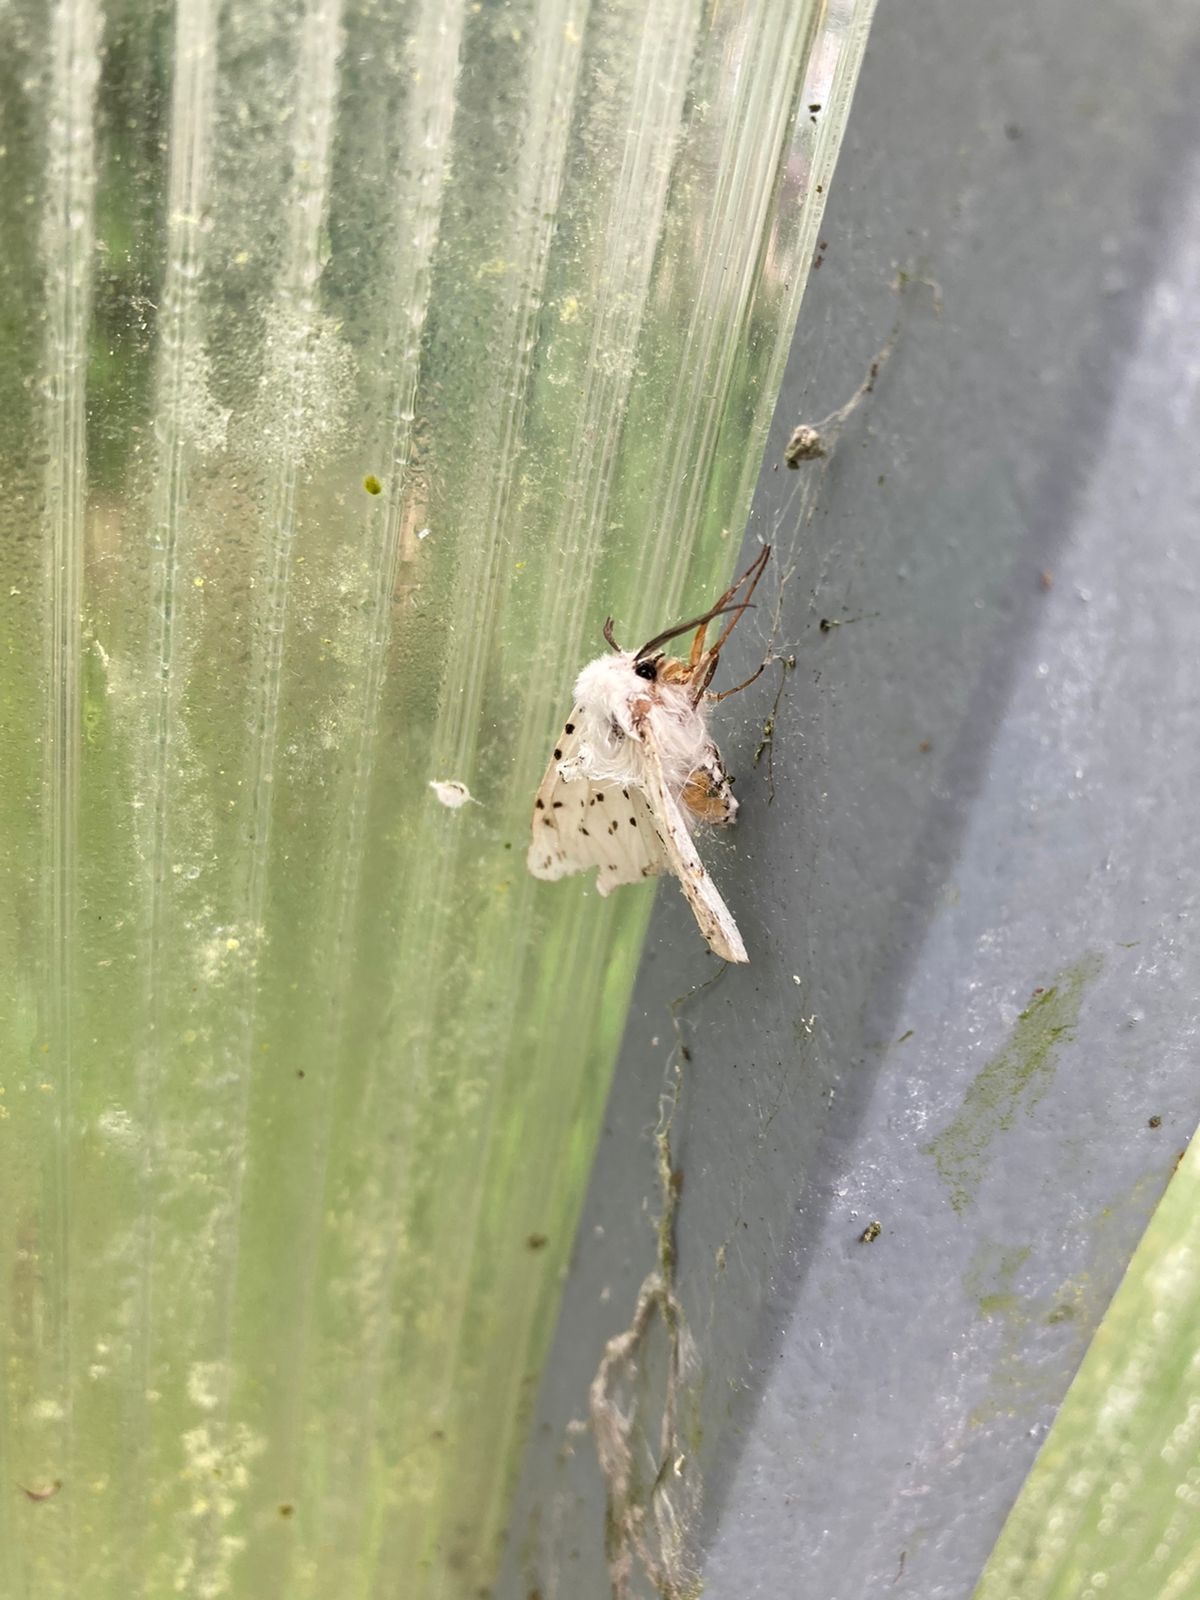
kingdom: Animalia
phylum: Arthropoda
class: Insecta
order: Lepidoptera
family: Erebidae
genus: Spilosoma
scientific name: Spilosoma lubricipeda
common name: White ermine
